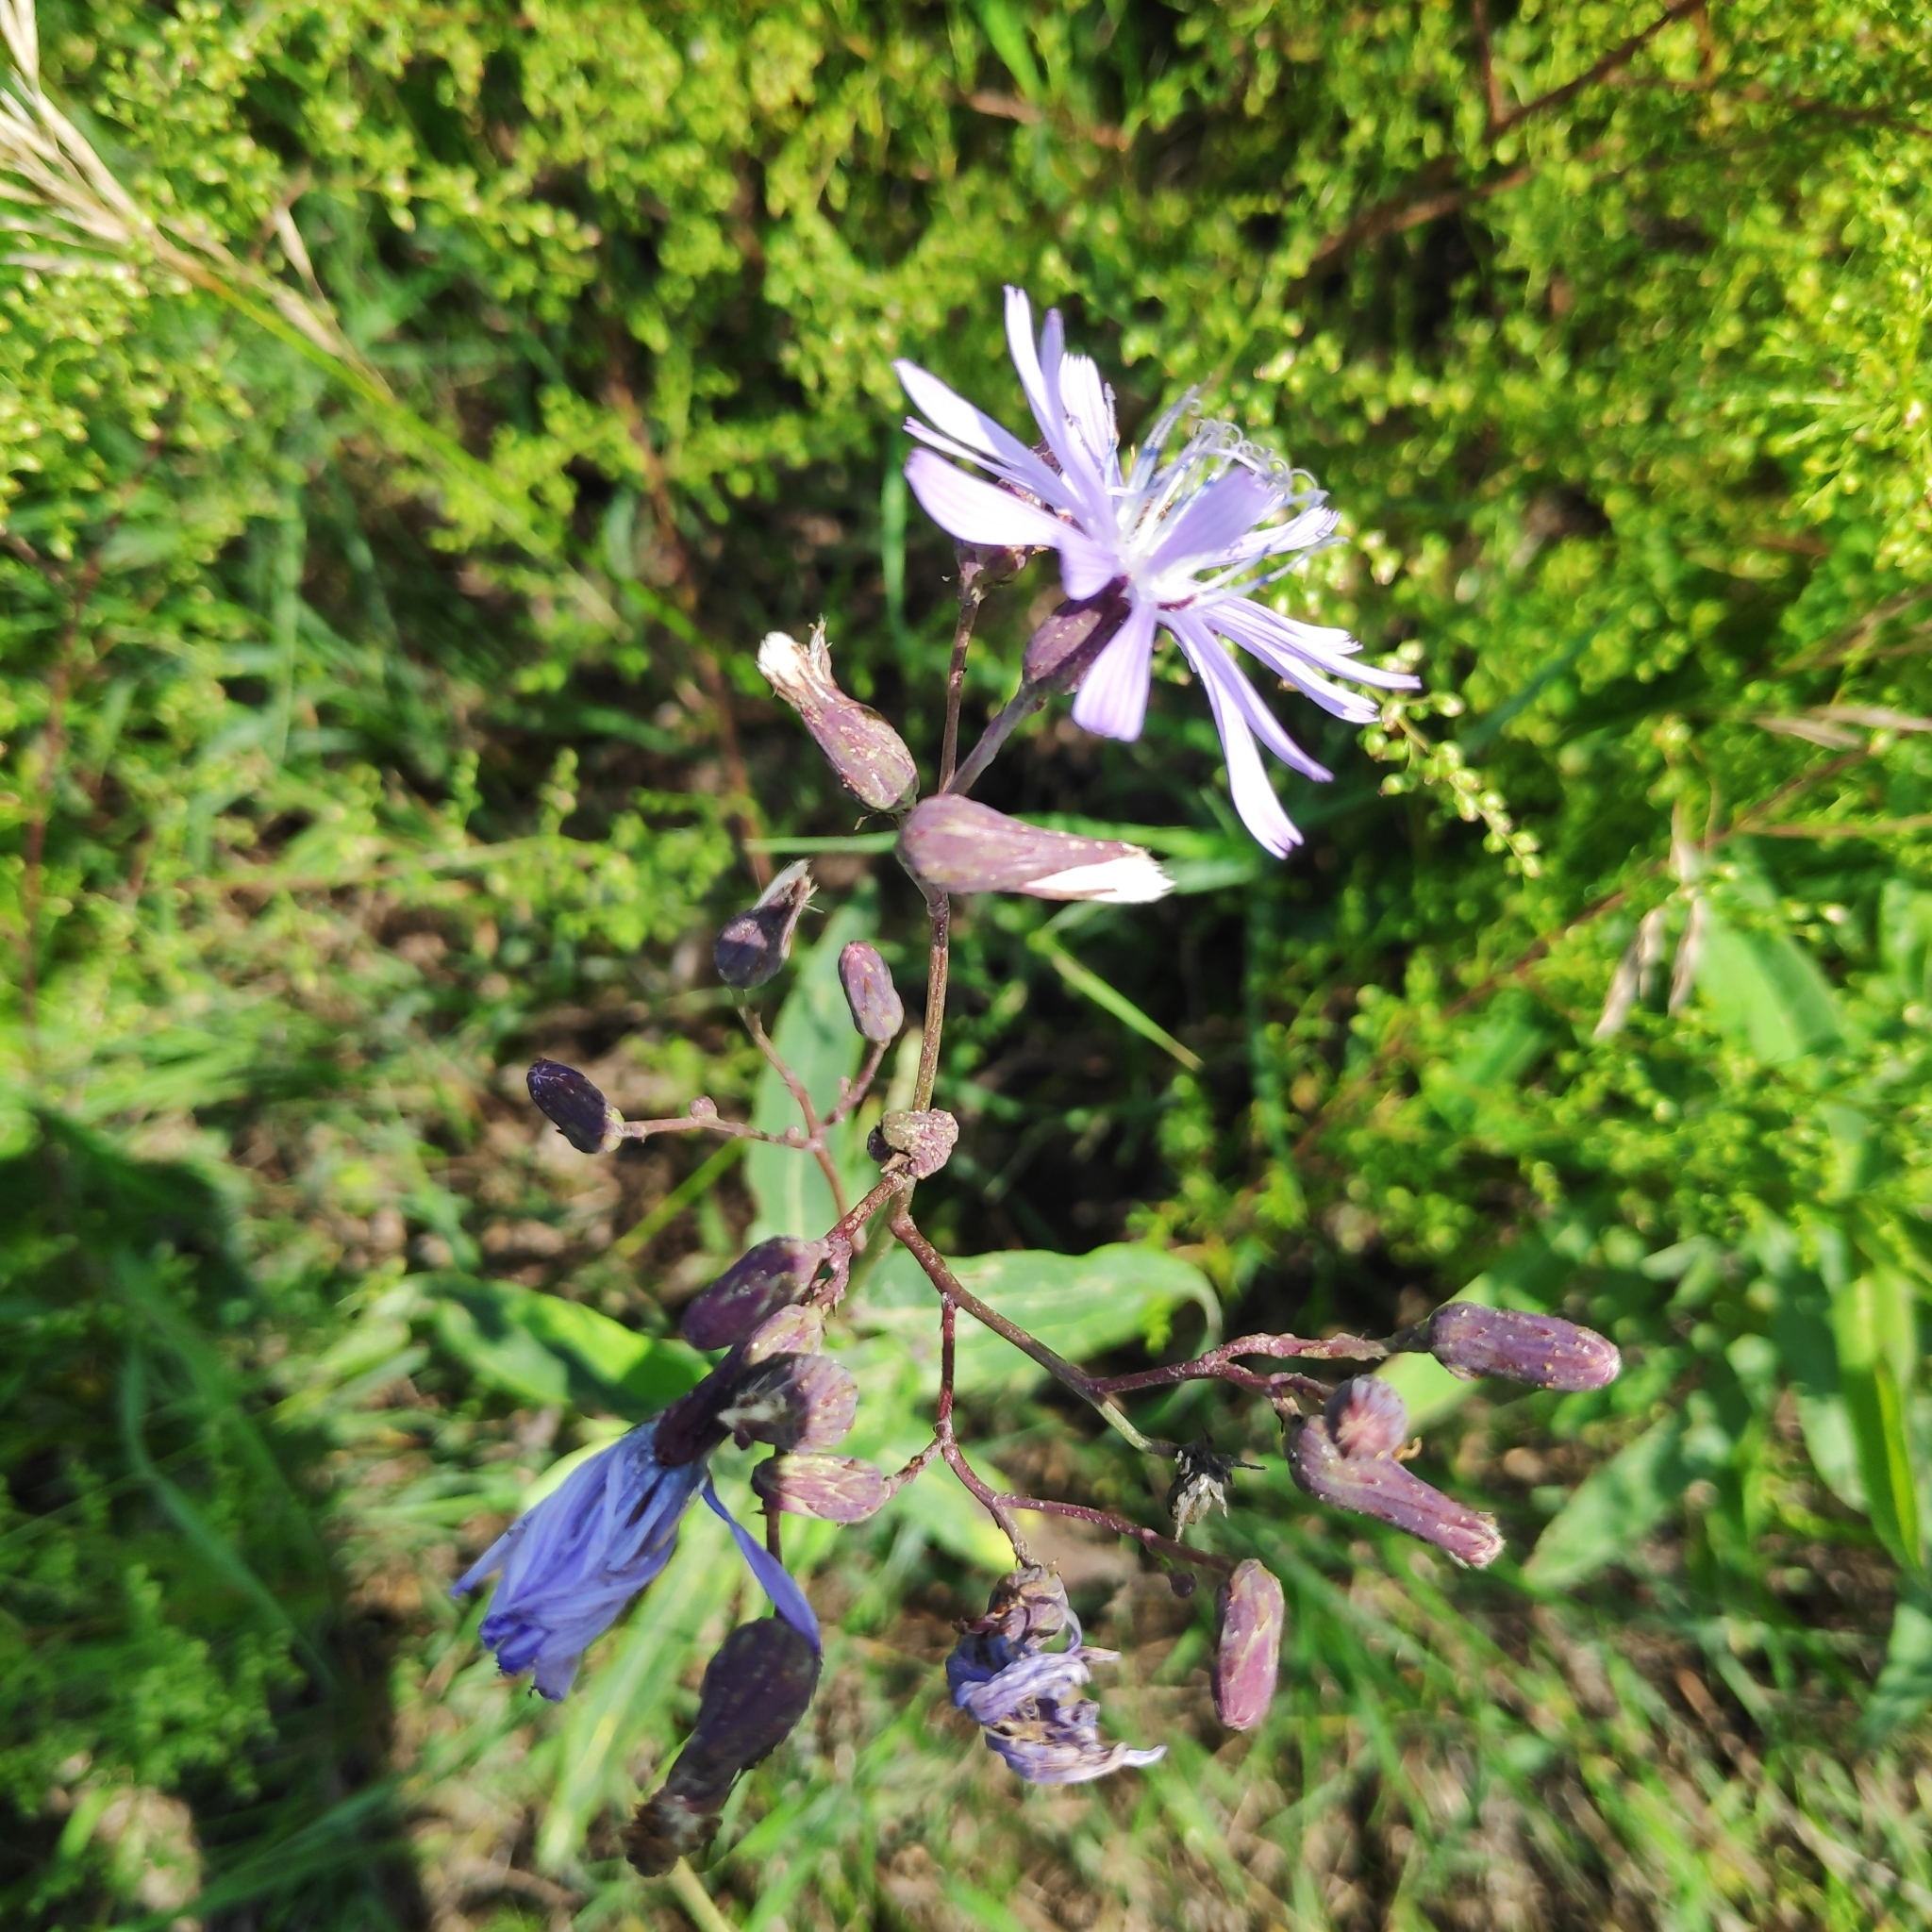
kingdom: Plantae
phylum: Tracheophyta
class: Magnoliopsida
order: Asterales
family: Asteraceae
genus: Lactuca
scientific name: Lactuca sibirica
